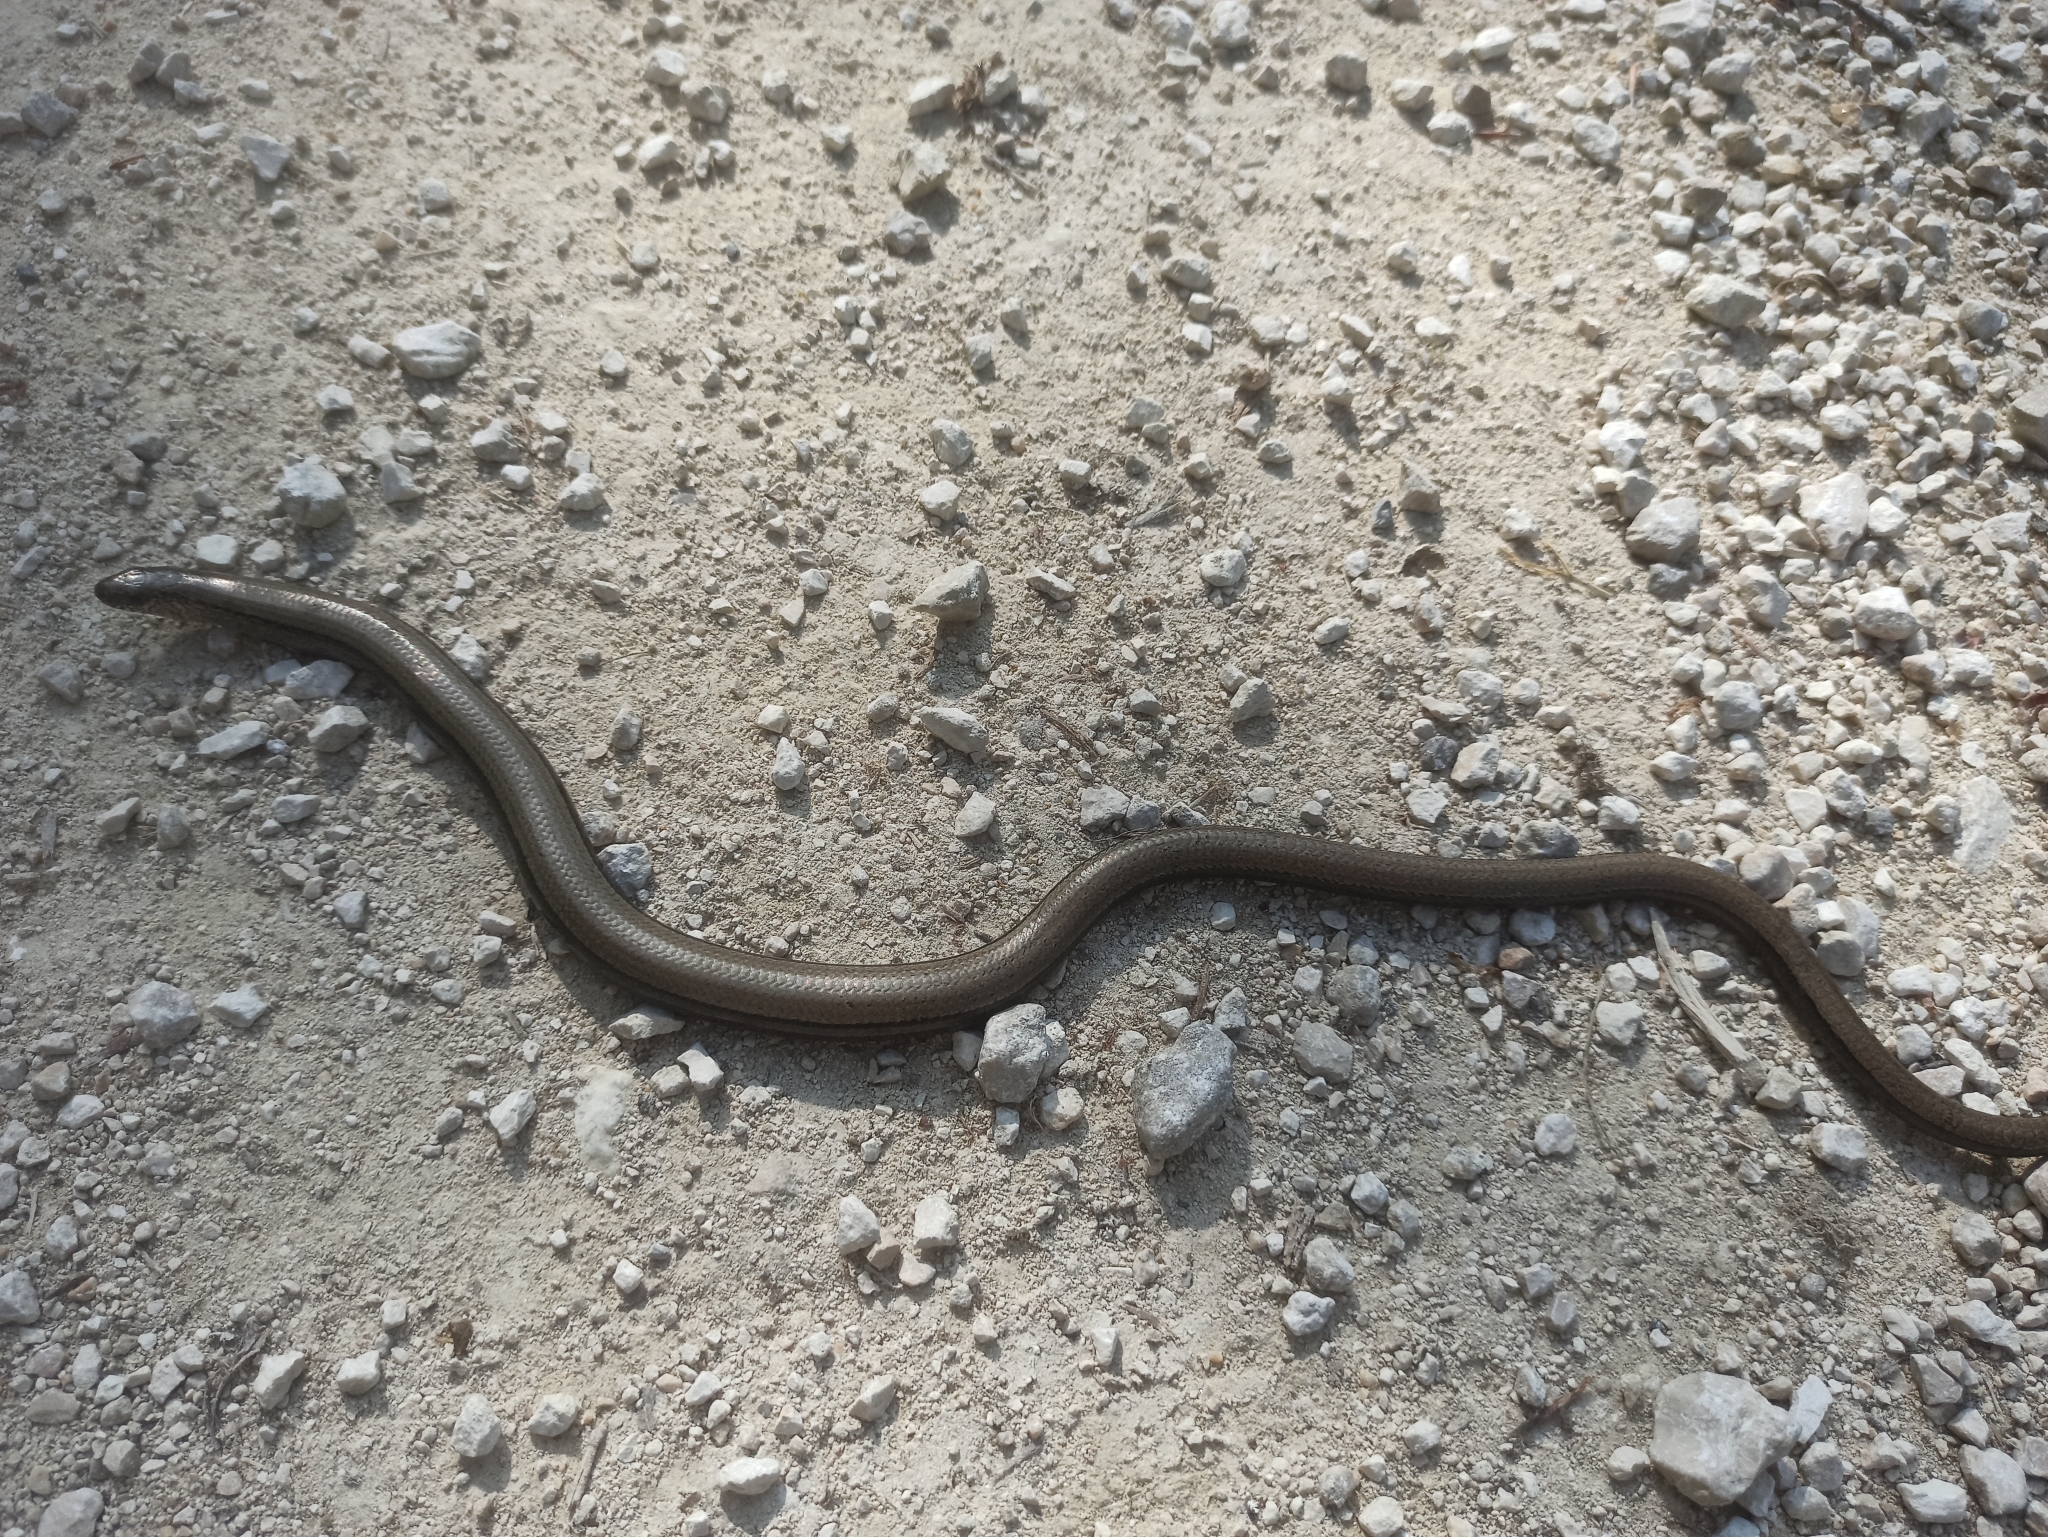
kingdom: Animalia
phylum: Chordata
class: Squamata
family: Anguidae
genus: Anguis
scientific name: Anguis fragilis
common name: Slow worm
